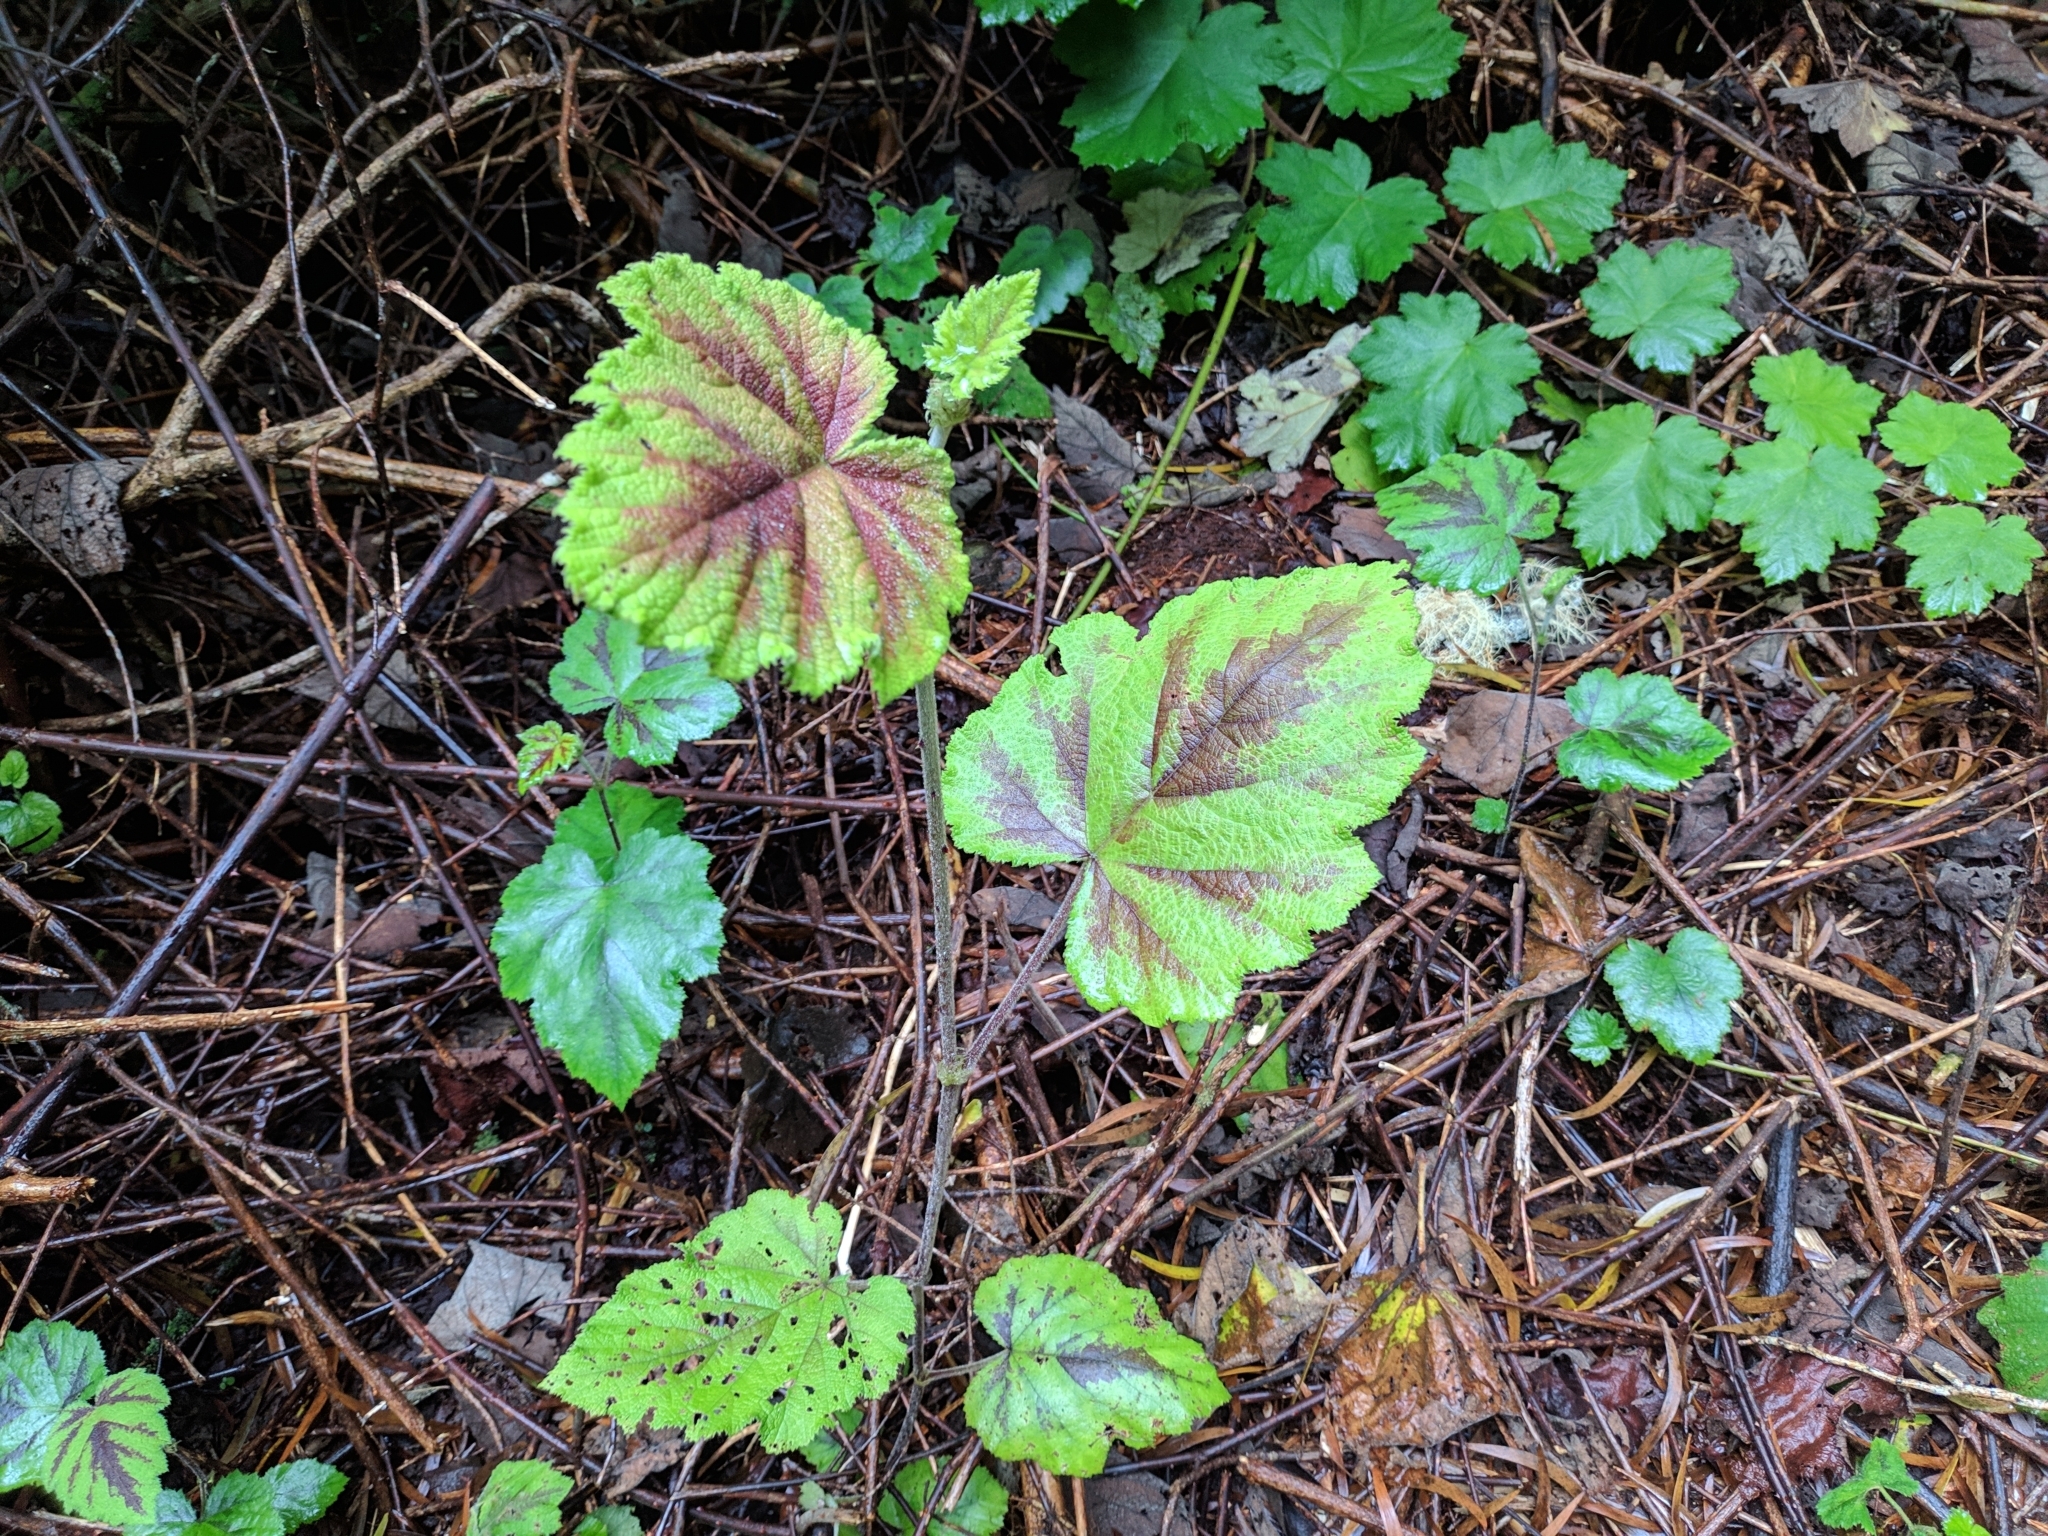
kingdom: Plantae
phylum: Tracheophyta
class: Magnoliopsida
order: Rosales
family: Rosaceae
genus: Rubus
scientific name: Rubus alceifolius
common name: Giant bramble
